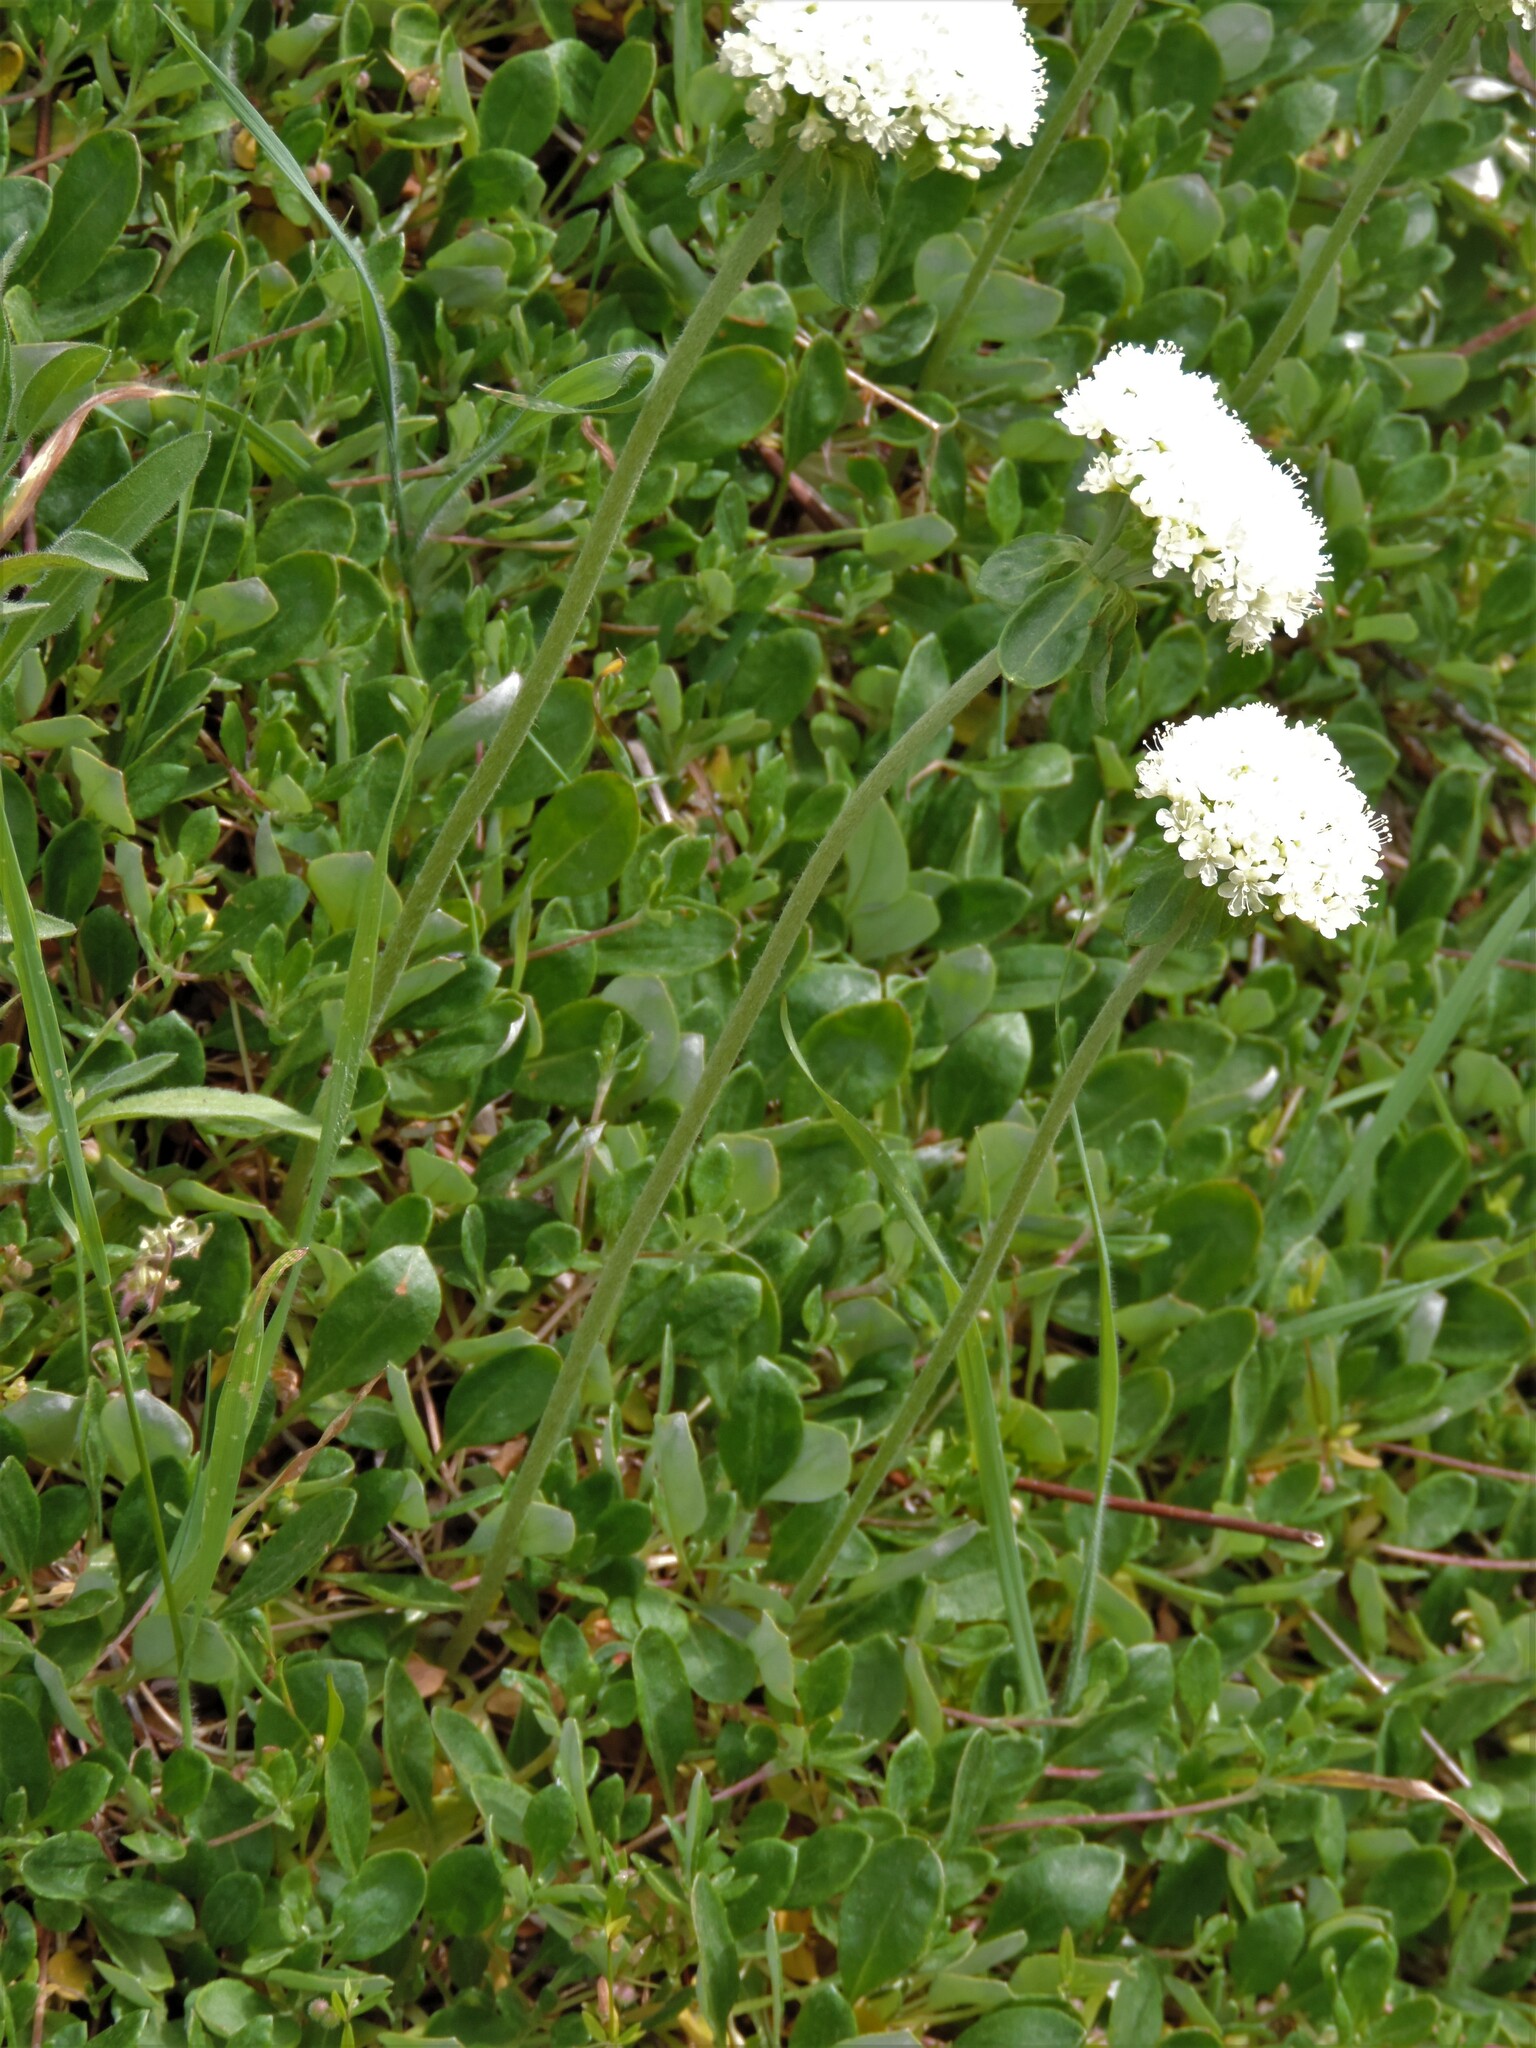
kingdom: Plantae
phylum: Tracheophyta
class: Magnoliopsida
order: Caryophyllales
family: Polygonaceae
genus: Eriogonum
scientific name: Eriogonum umbellatum
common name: Sulfur-buckwheat
